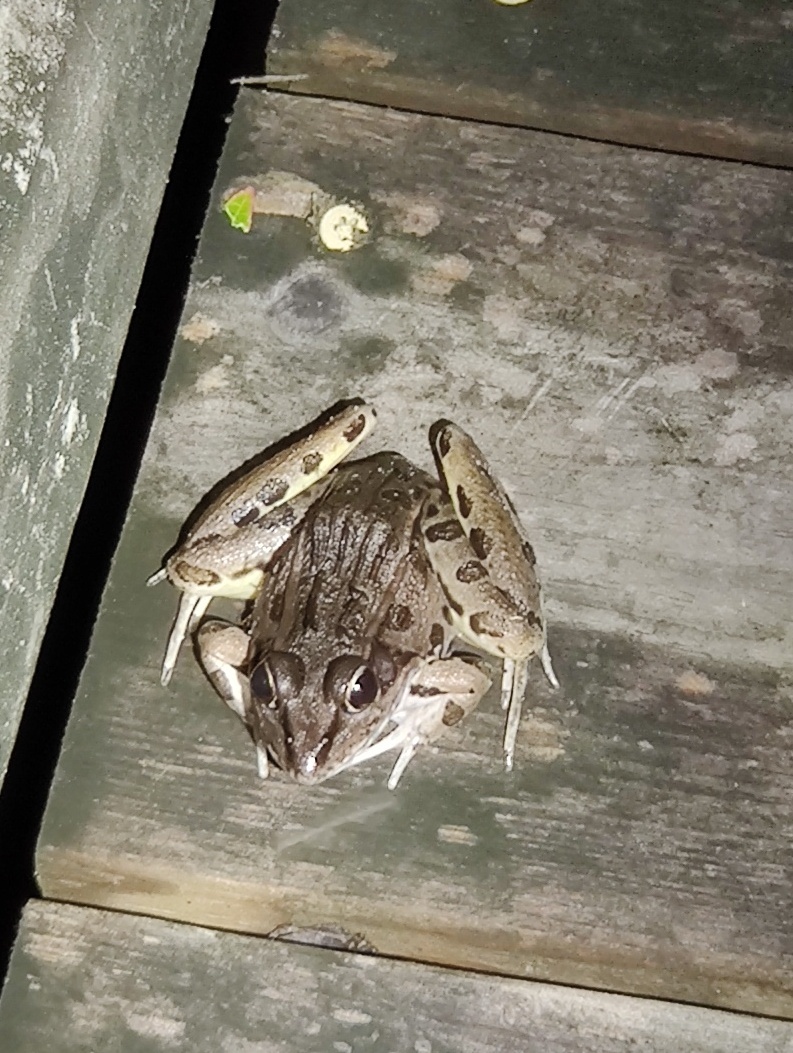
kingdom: Animalia
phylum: Chordata
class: Amphibia
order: Anura
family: Ranidae
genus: Lithobates
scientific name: Lithobates sphenocephalus
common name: Southern leopard frog
